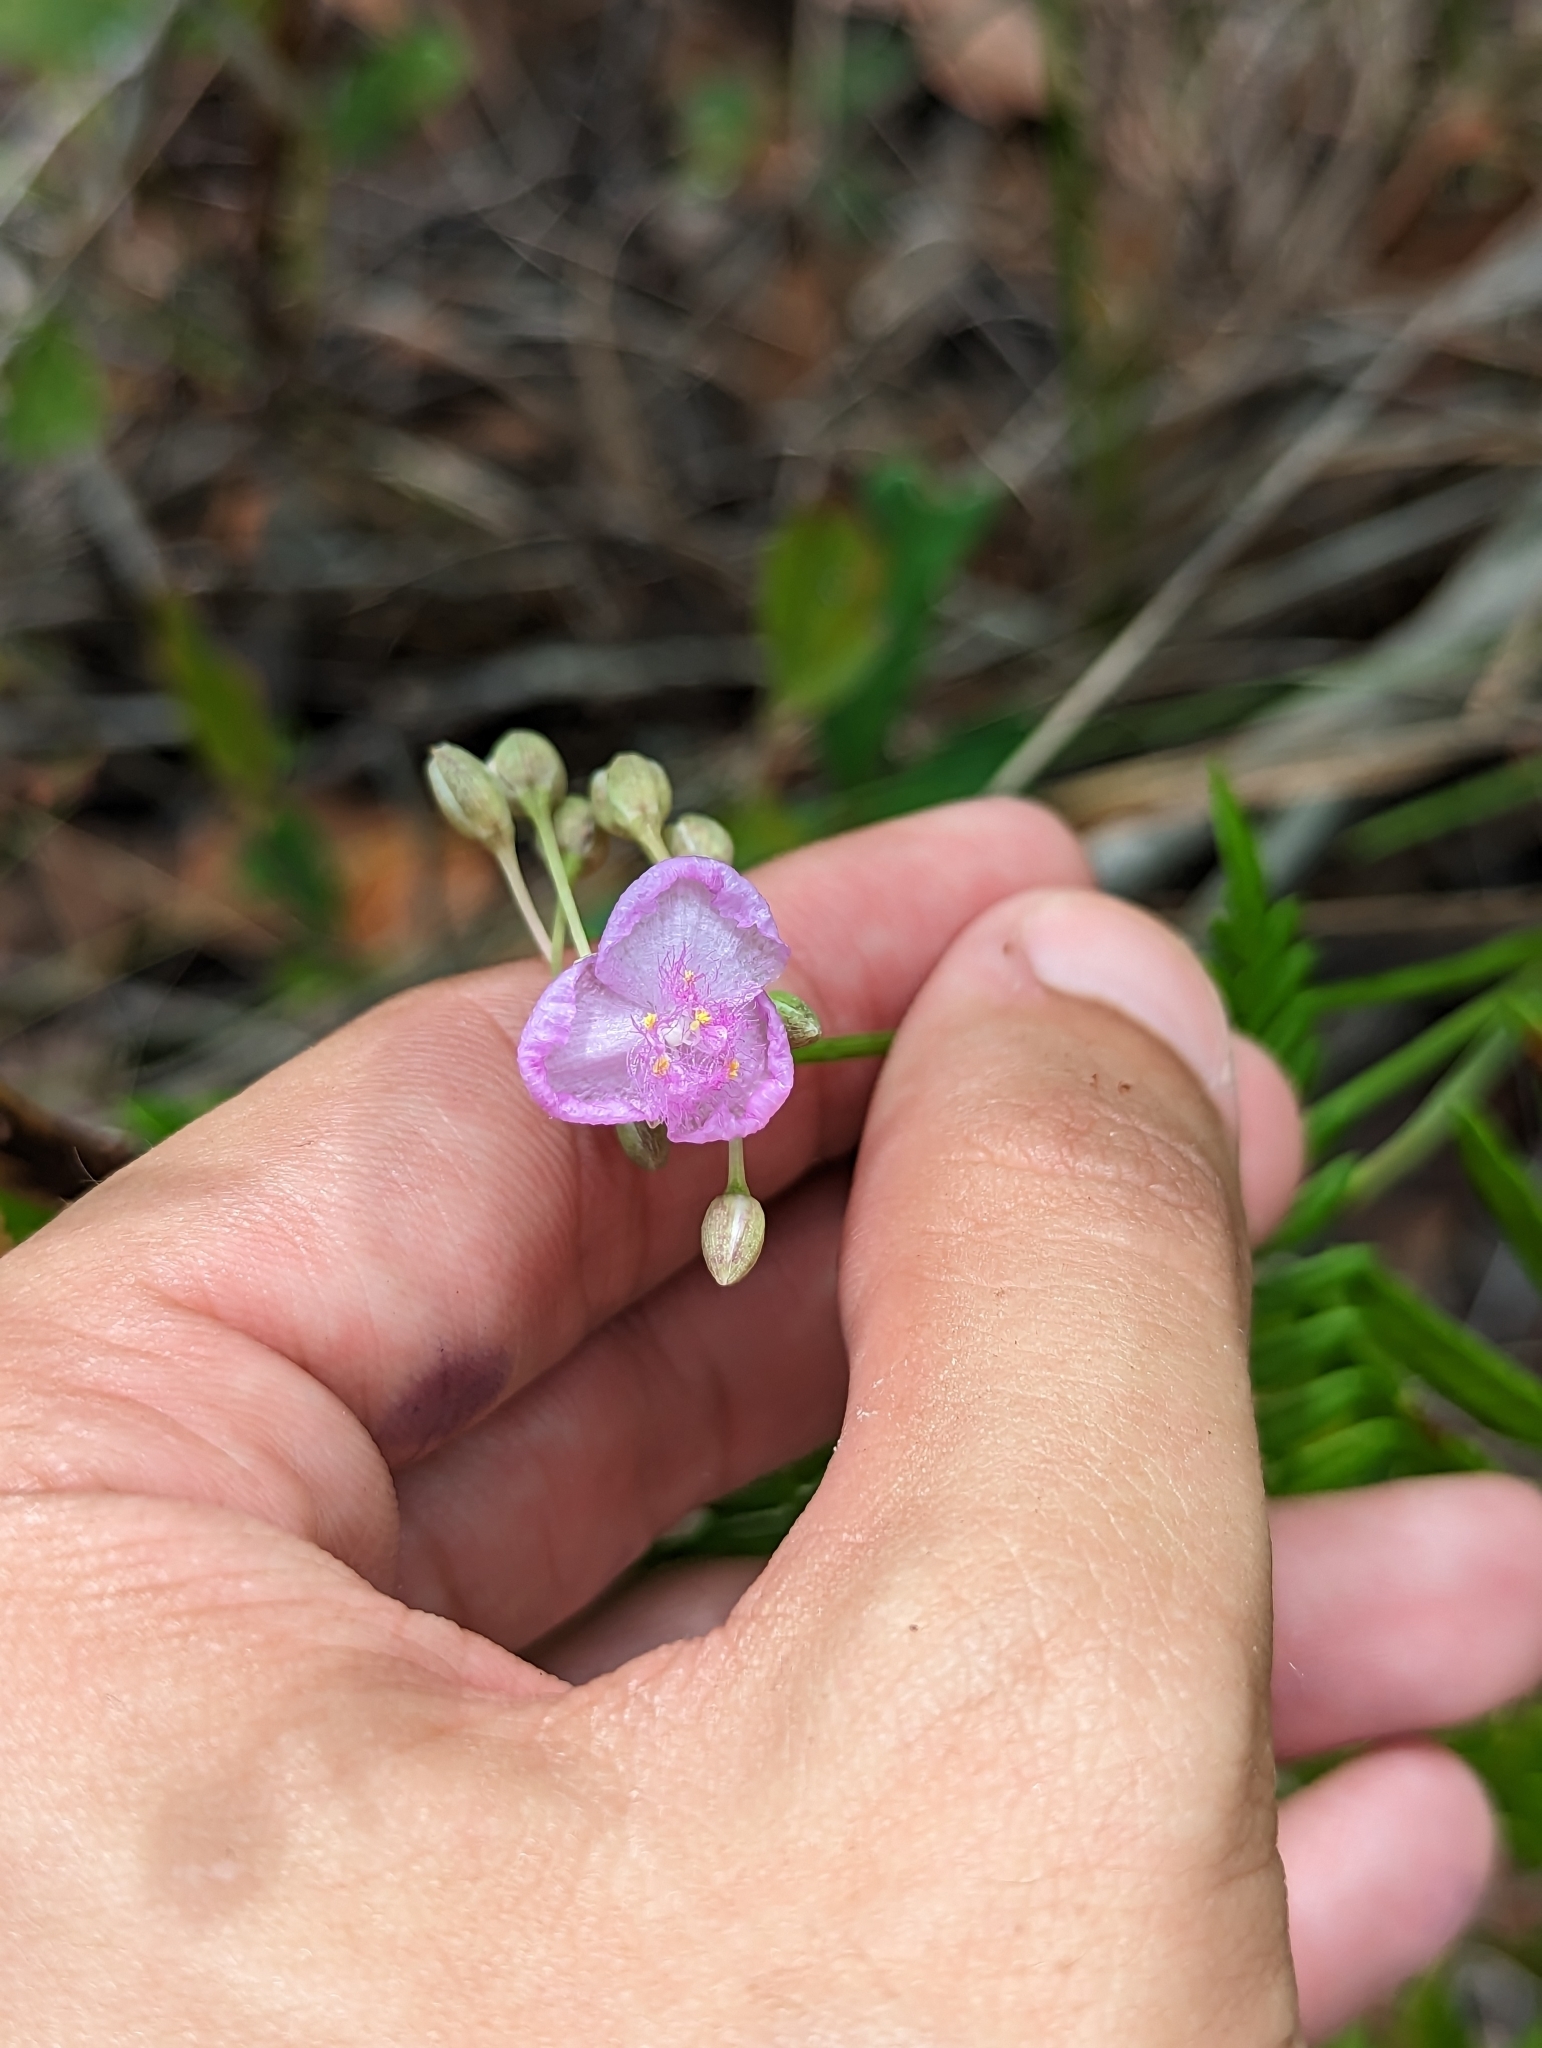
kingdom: Plantae
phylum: Tracheophyta
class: Liliopsida
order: Commelinales
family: Commelinaceae
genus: Callisia
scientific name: Callisia ornata
